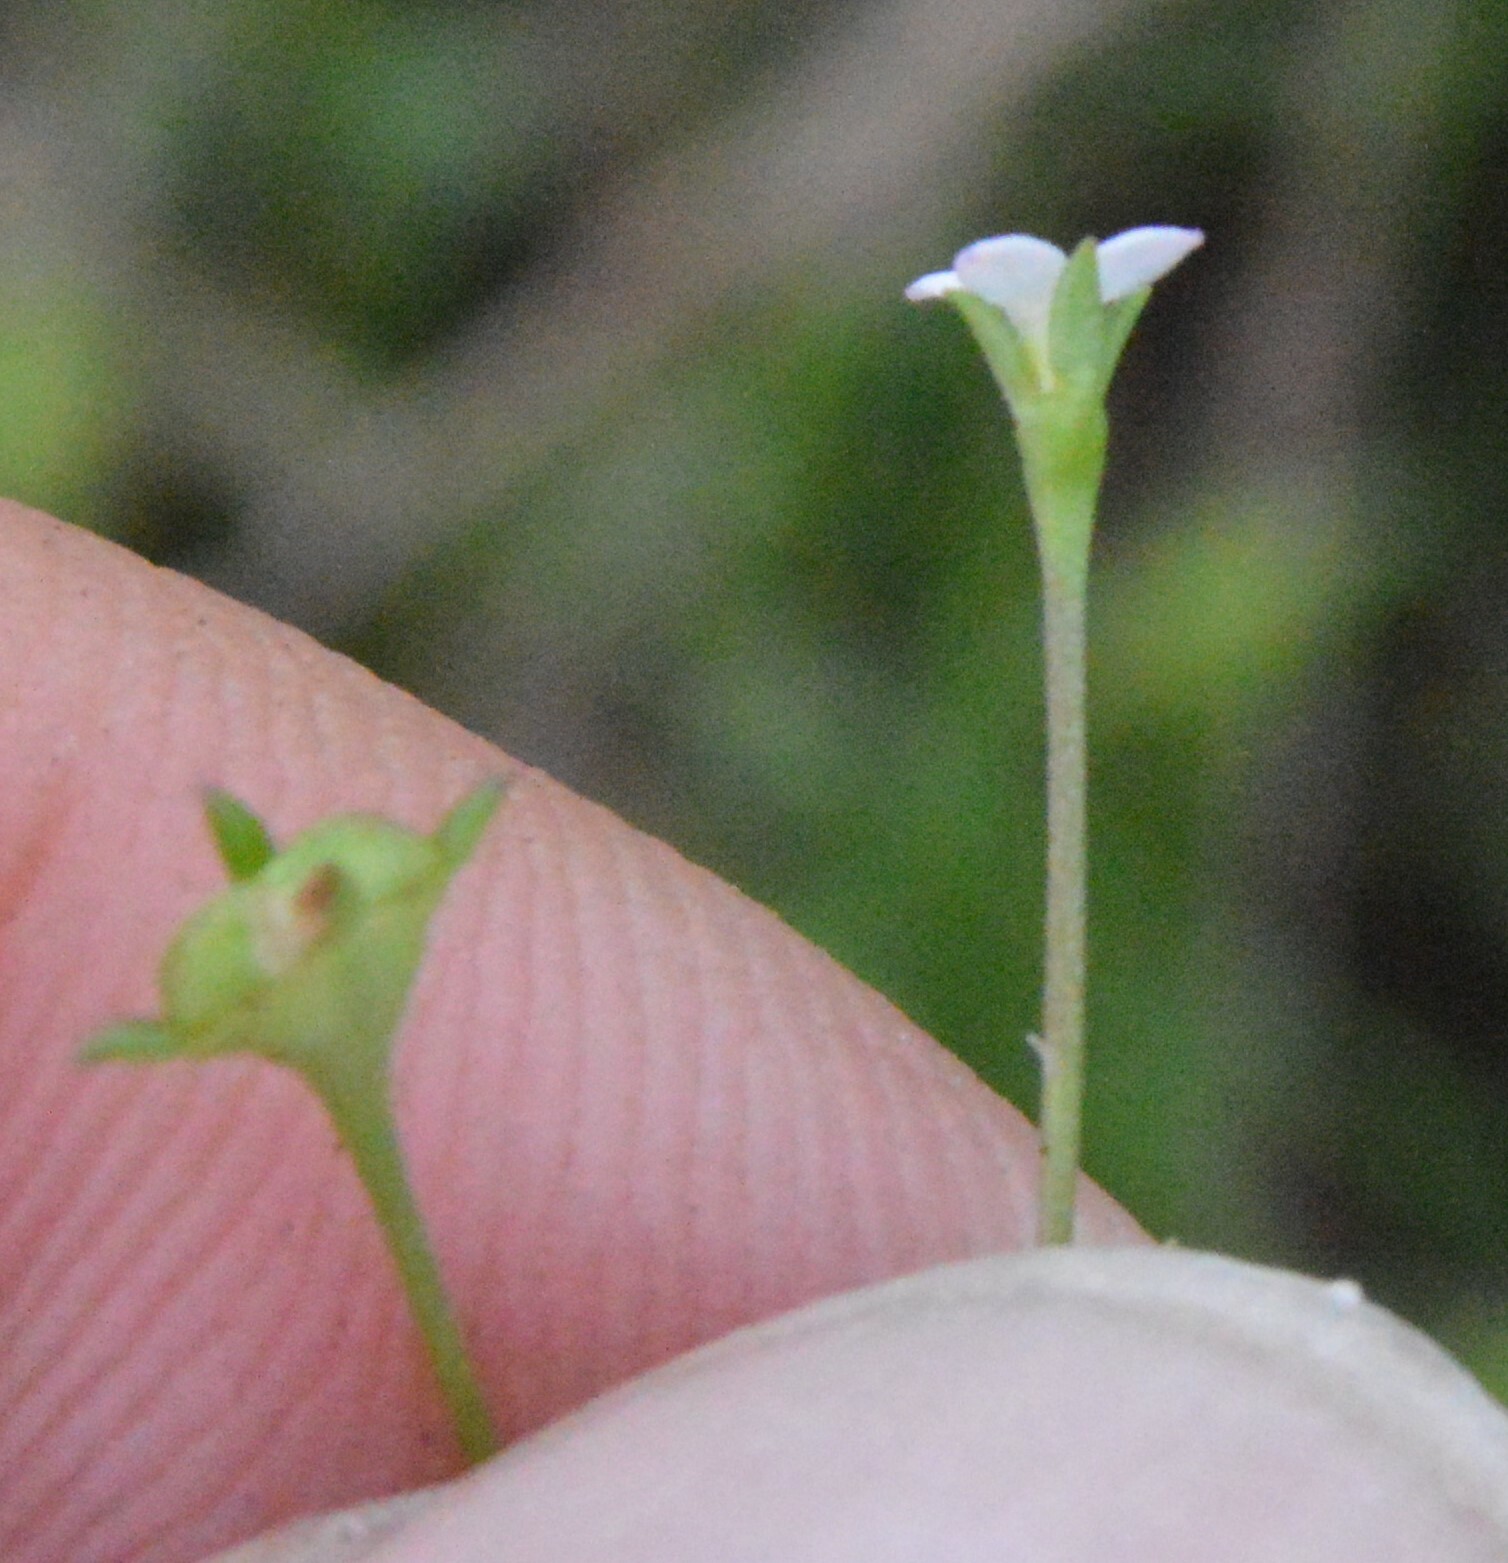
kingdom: Plantae
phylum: Tracheophyta
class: Magnoliopsida
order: Gentianales
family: Rubiaceae
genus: Houstonia
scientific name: Houstonia micrantha
